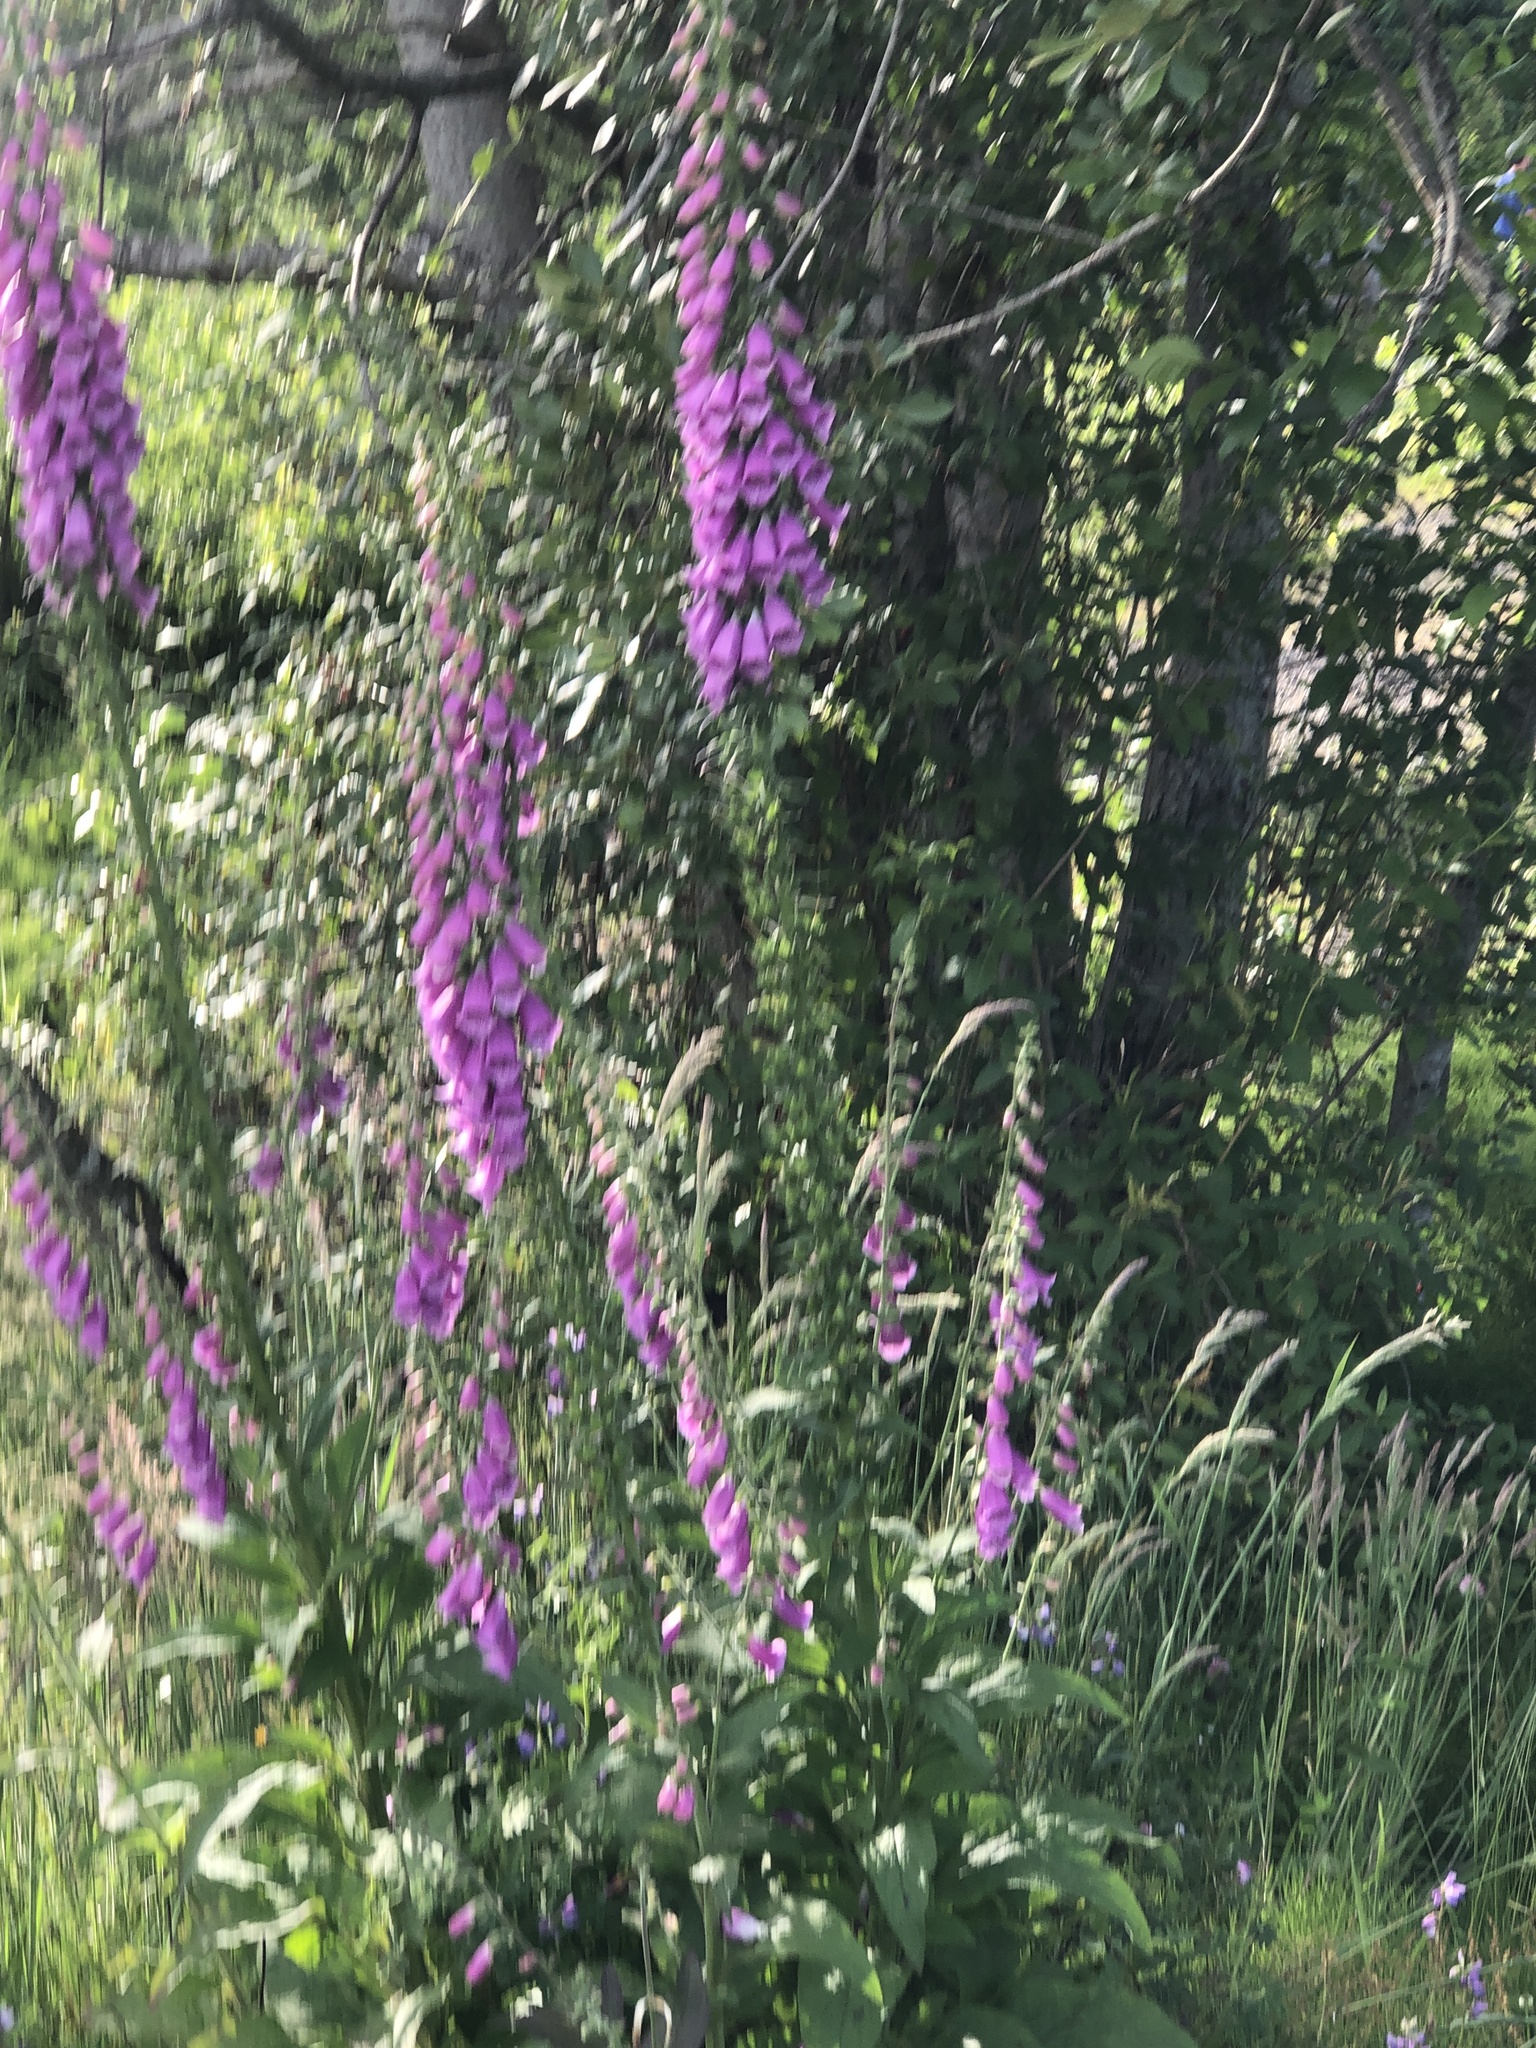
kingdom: Plantae
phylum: Tracheophyta
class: Magnoliopsida
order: Lamiales
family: Plantaginaceae
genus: Digitalis
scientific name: Digitalis purpurea
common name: Foxglove
